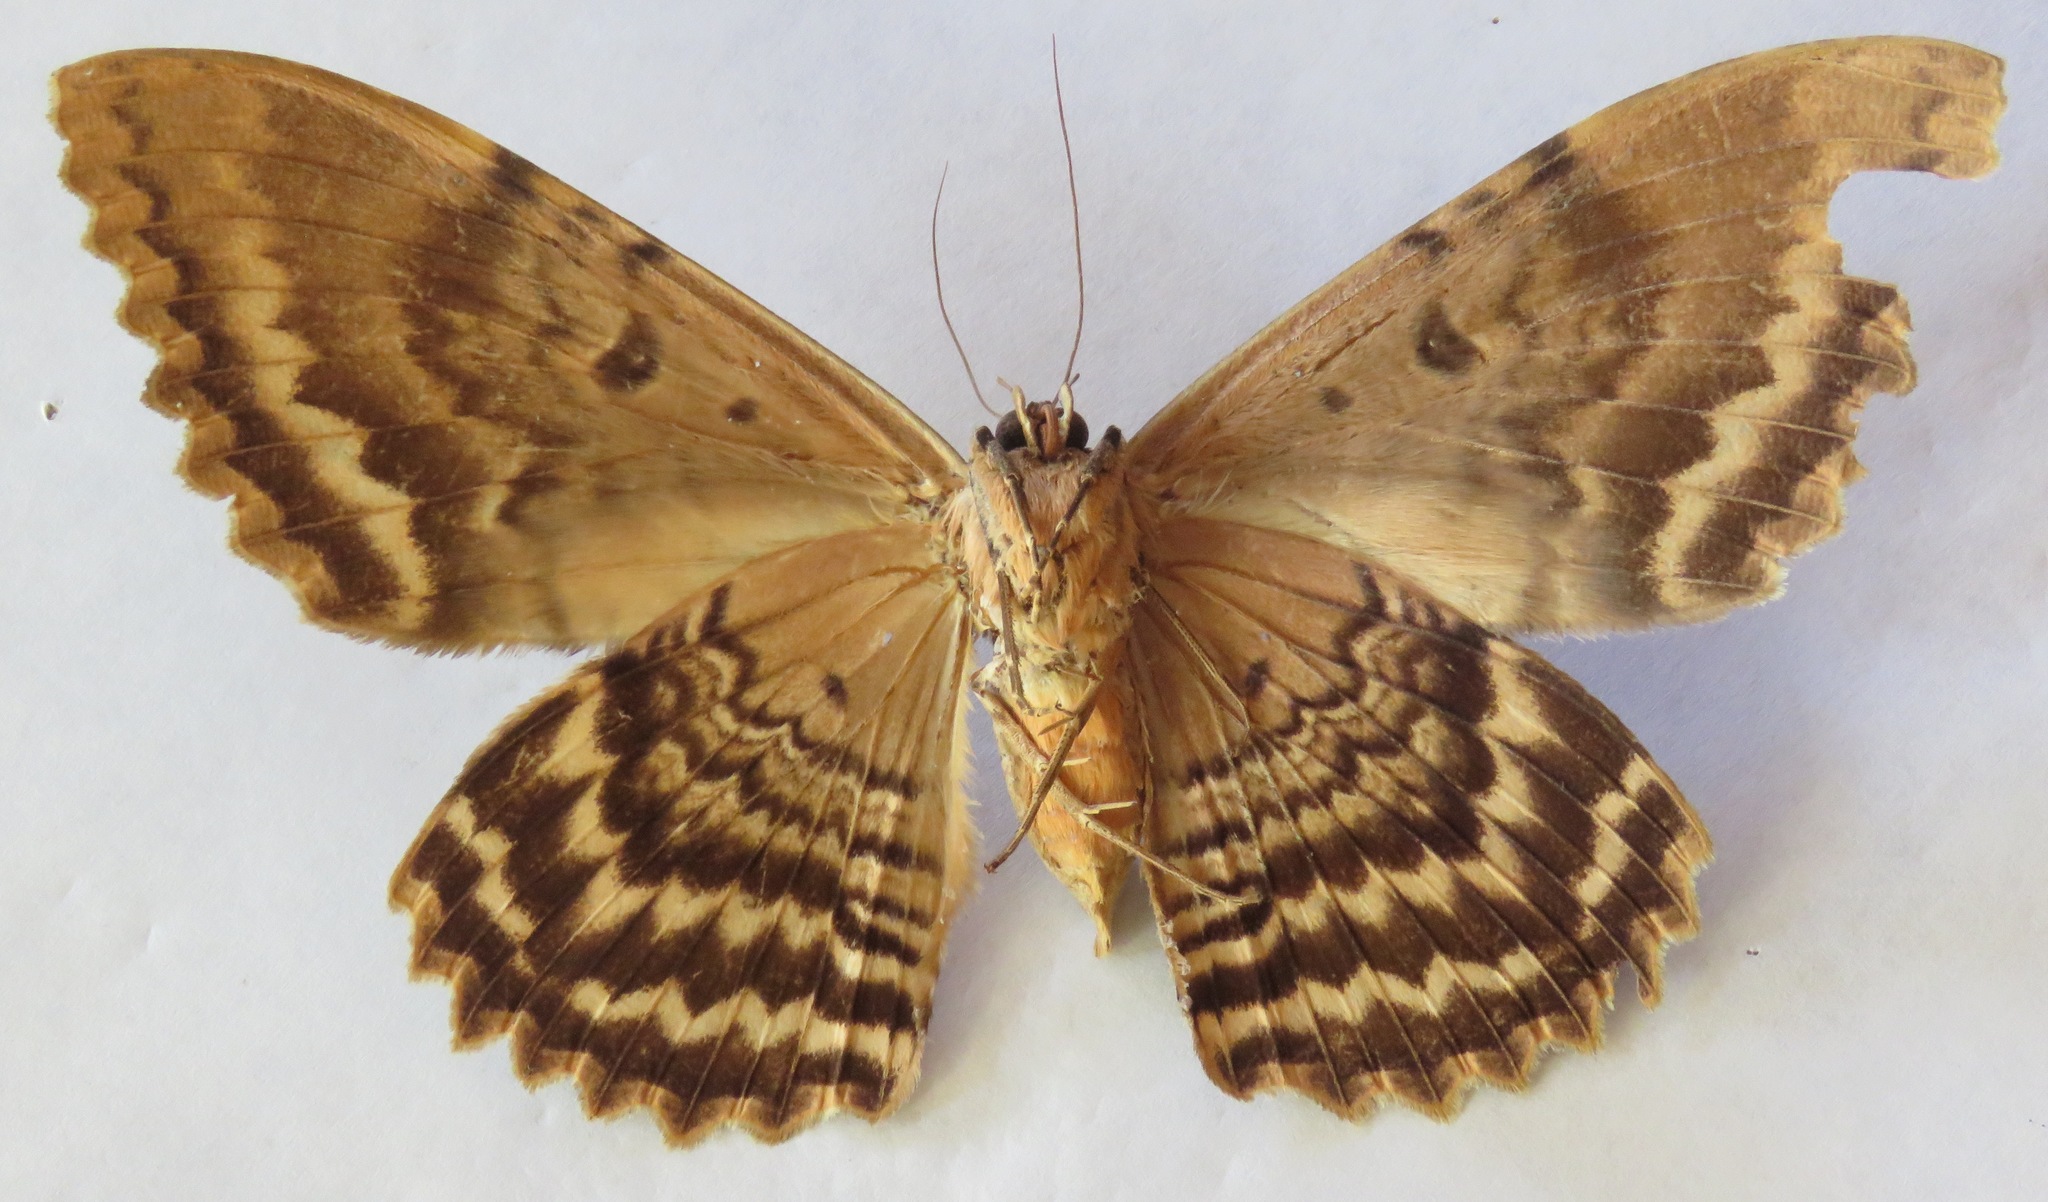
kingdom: Animalia
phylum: Arthropoda
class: Insecta
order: Lepidoptera
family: Erebidae
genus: Thysania
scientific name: Thysania zenobia
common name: Owl moth
